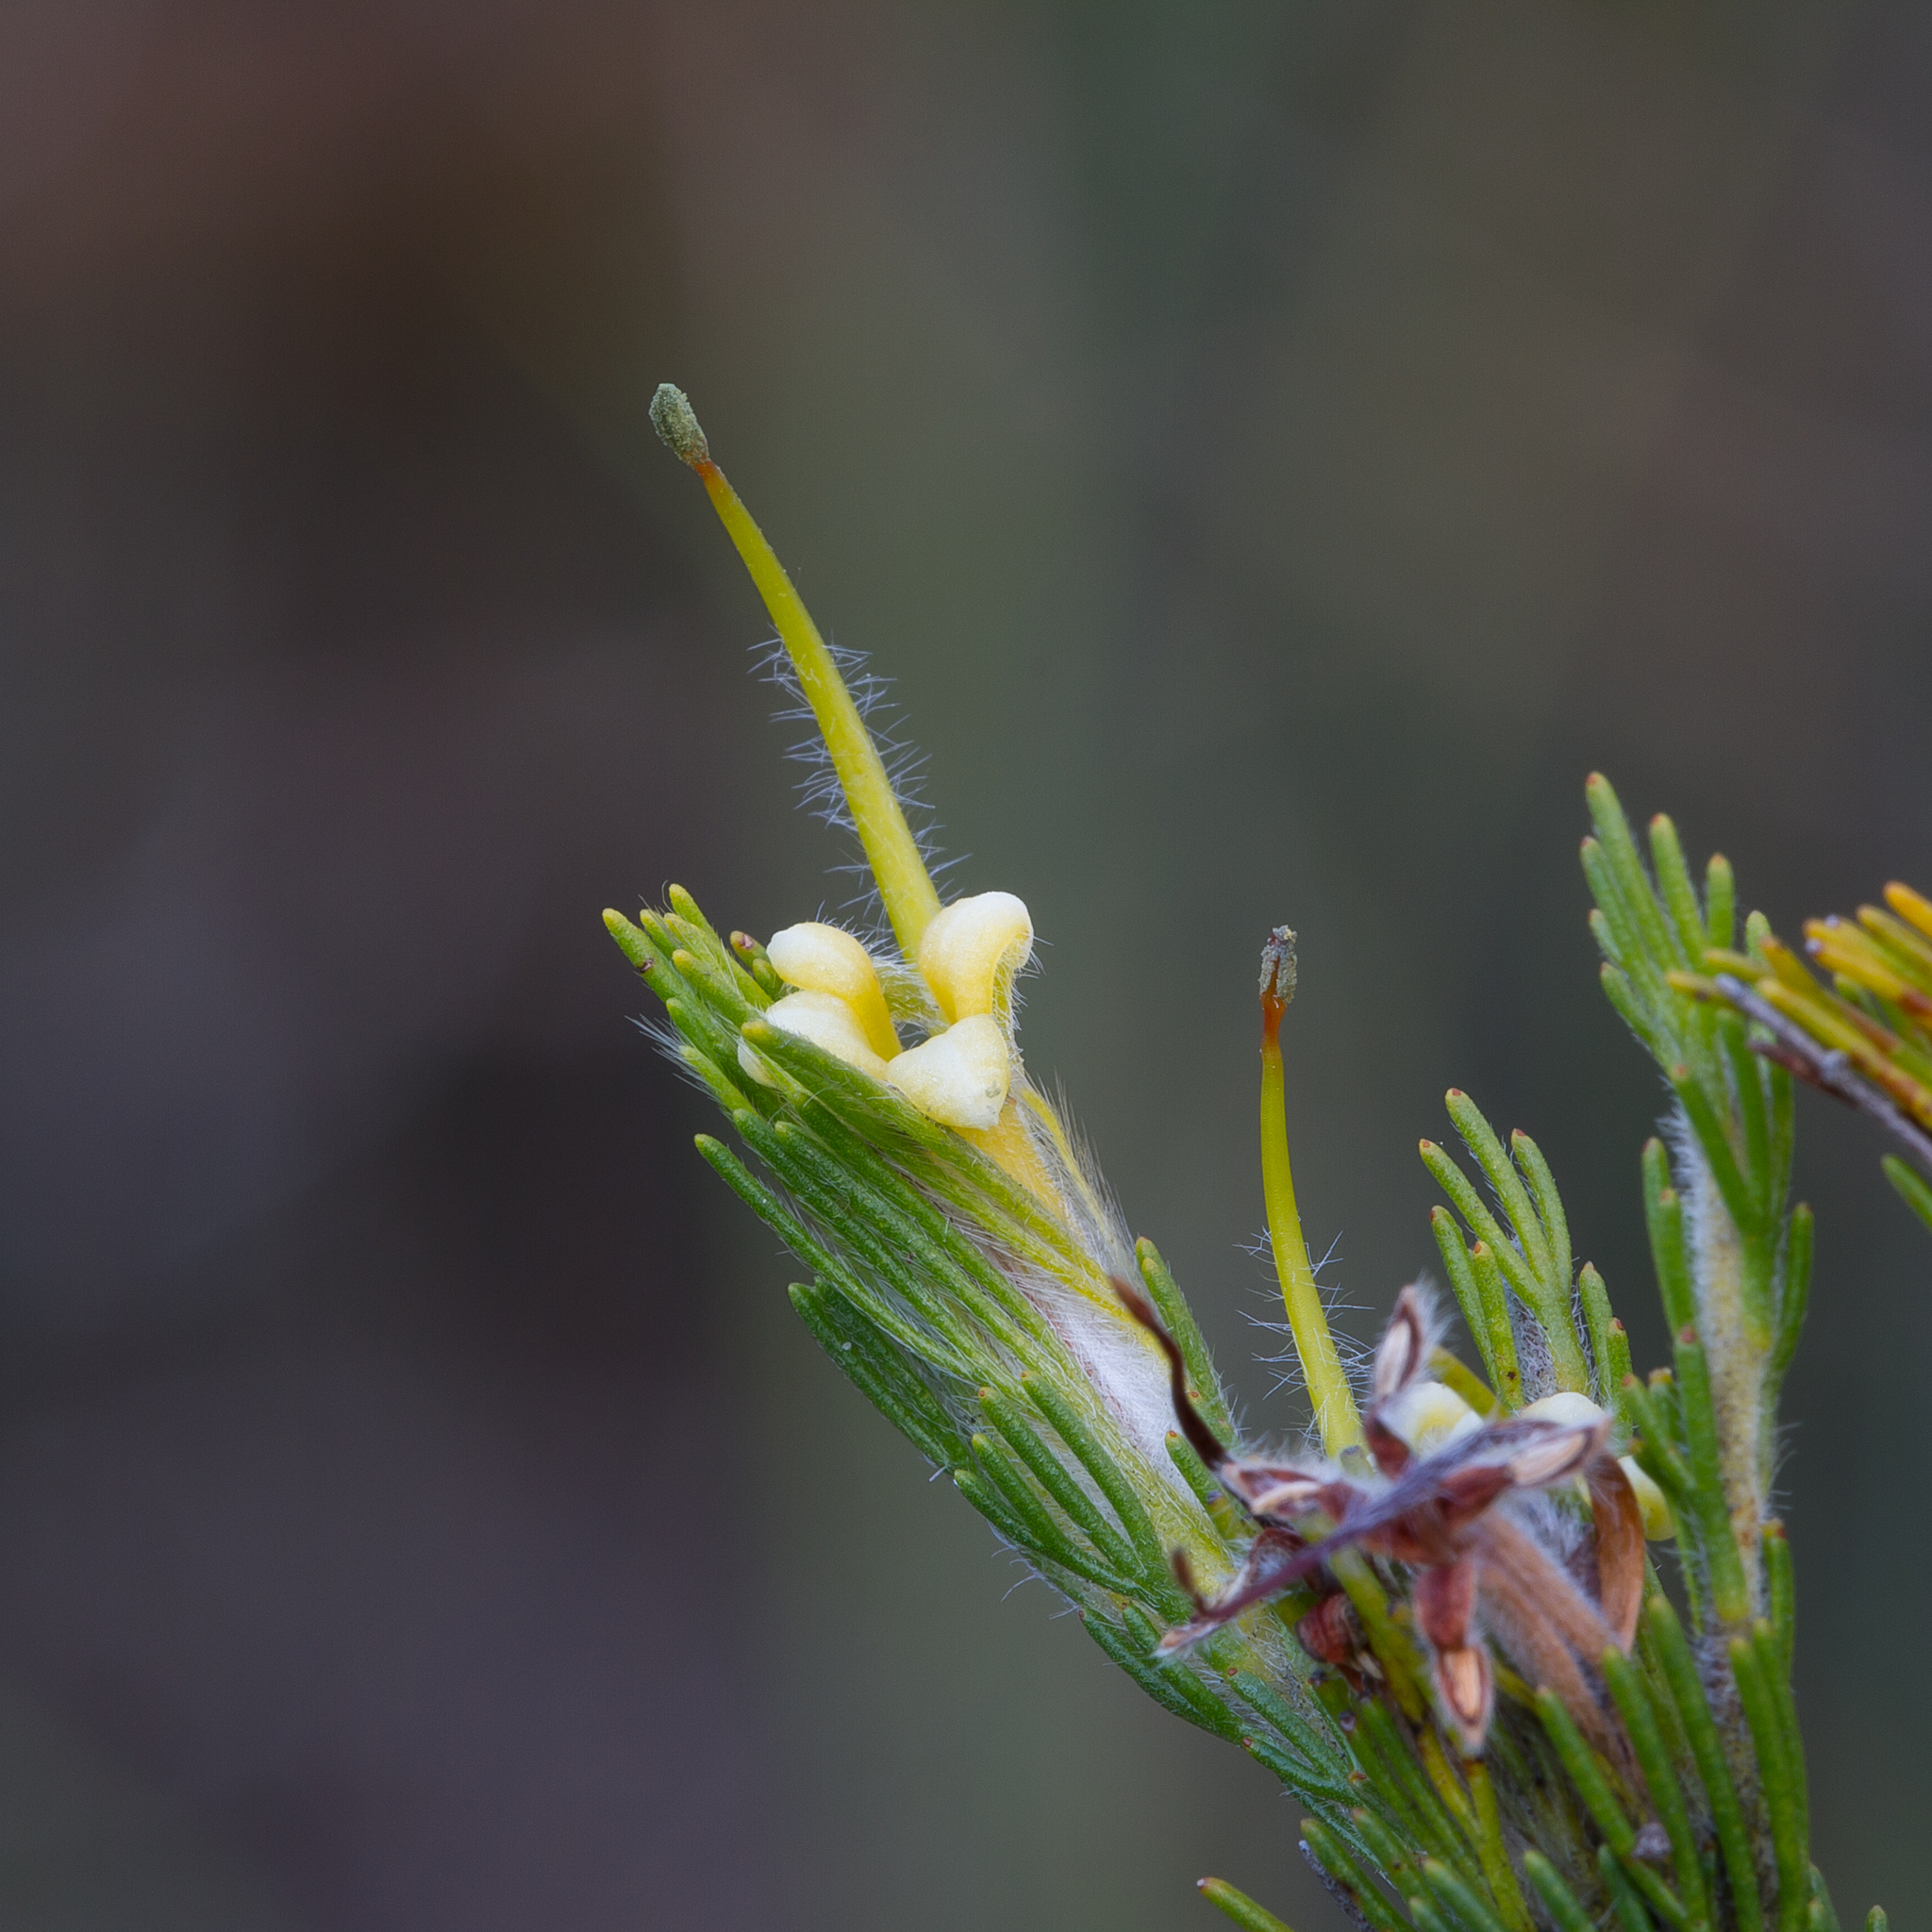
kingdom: Plantae
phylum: Tracheophyta
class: Magnoliopsida
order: Proteales
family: Proteaceae
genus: Adenanthos
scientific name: Adenanthos terminalis
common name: Yellow gland-flower
